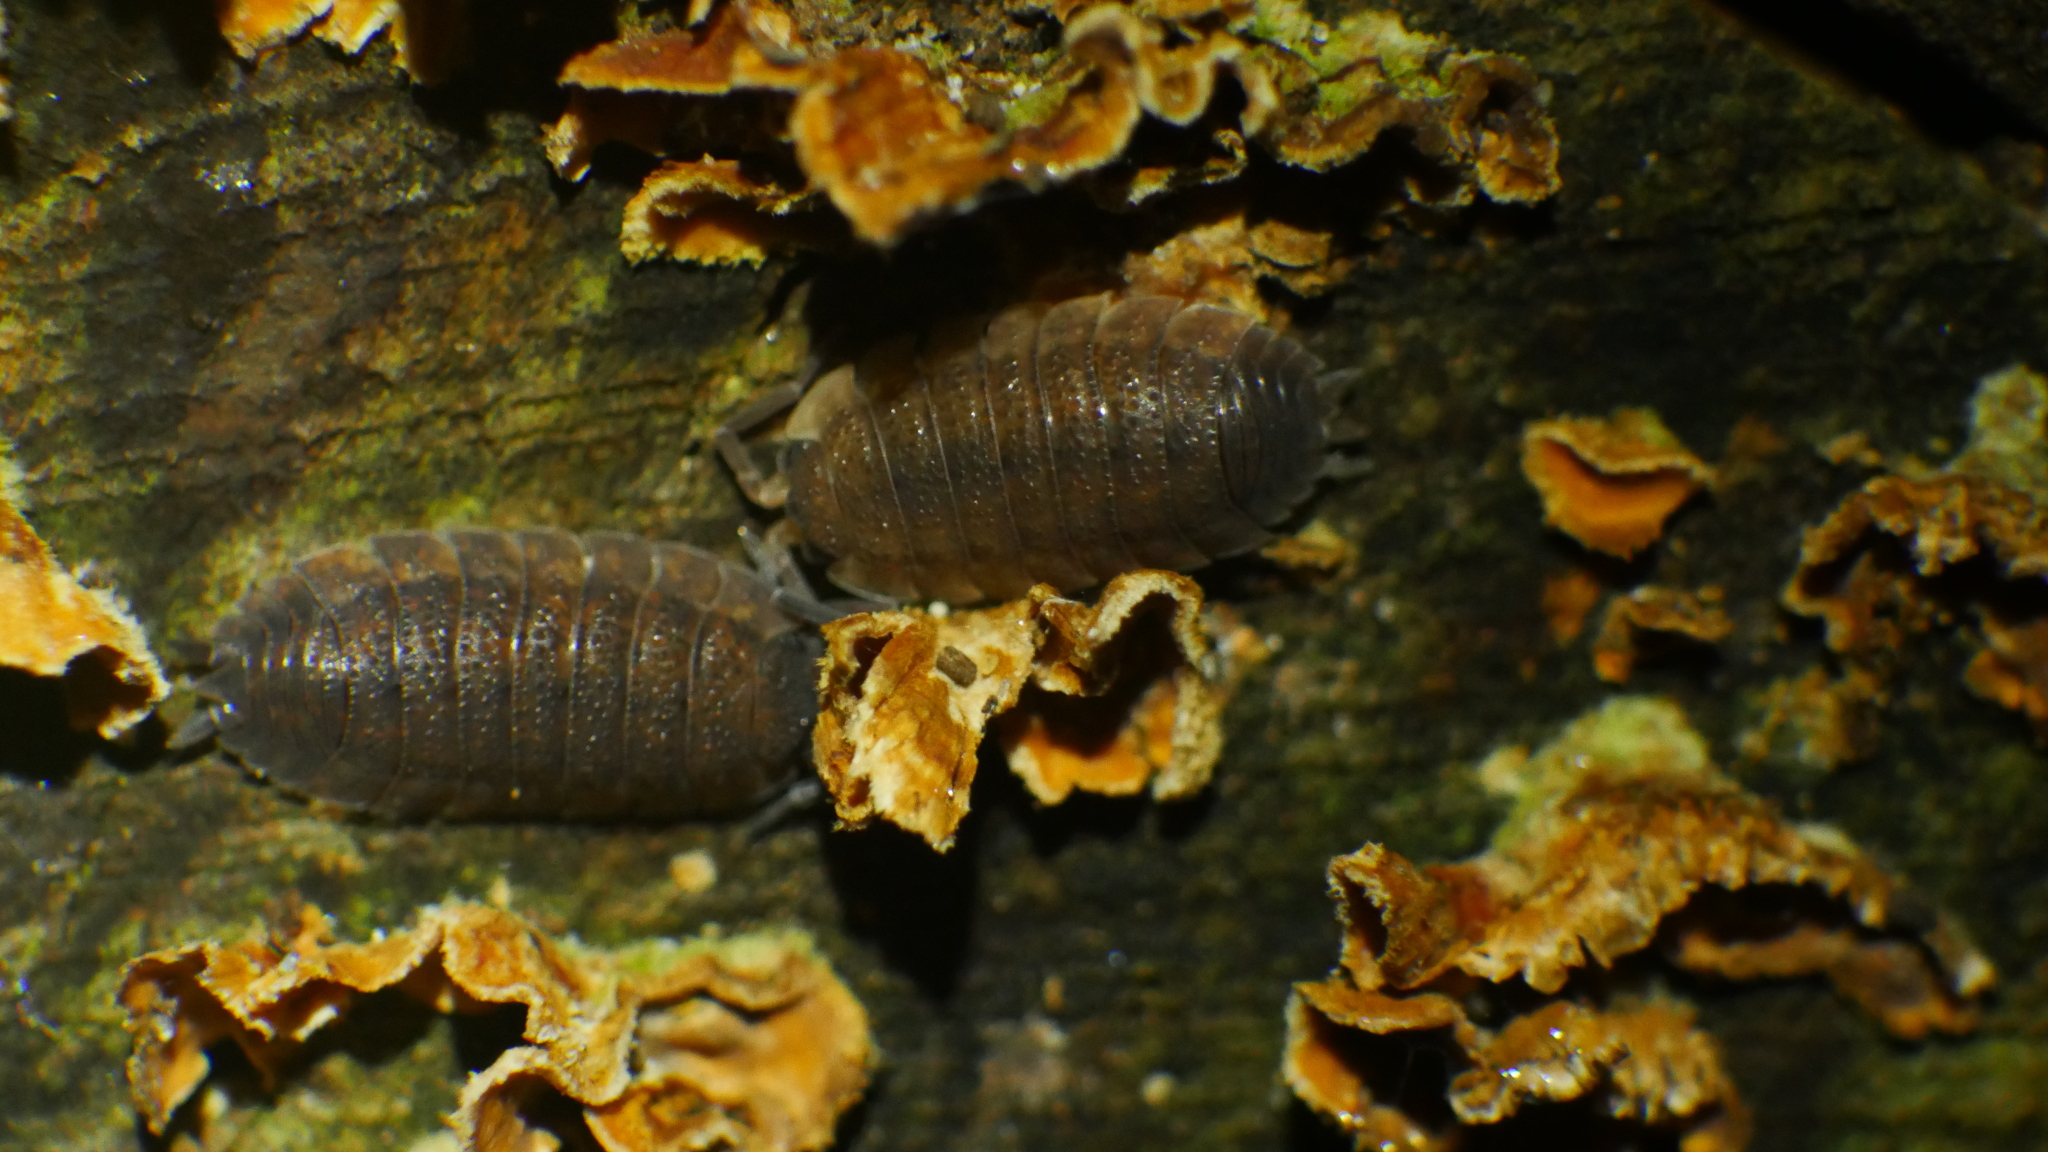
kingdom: Animalia
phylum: Arthropoda
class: Malacostraca
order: Isopoda
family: Porcellionidae
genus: Porcellio
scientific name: Porcellio scaber
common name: Common rough woodlouse
